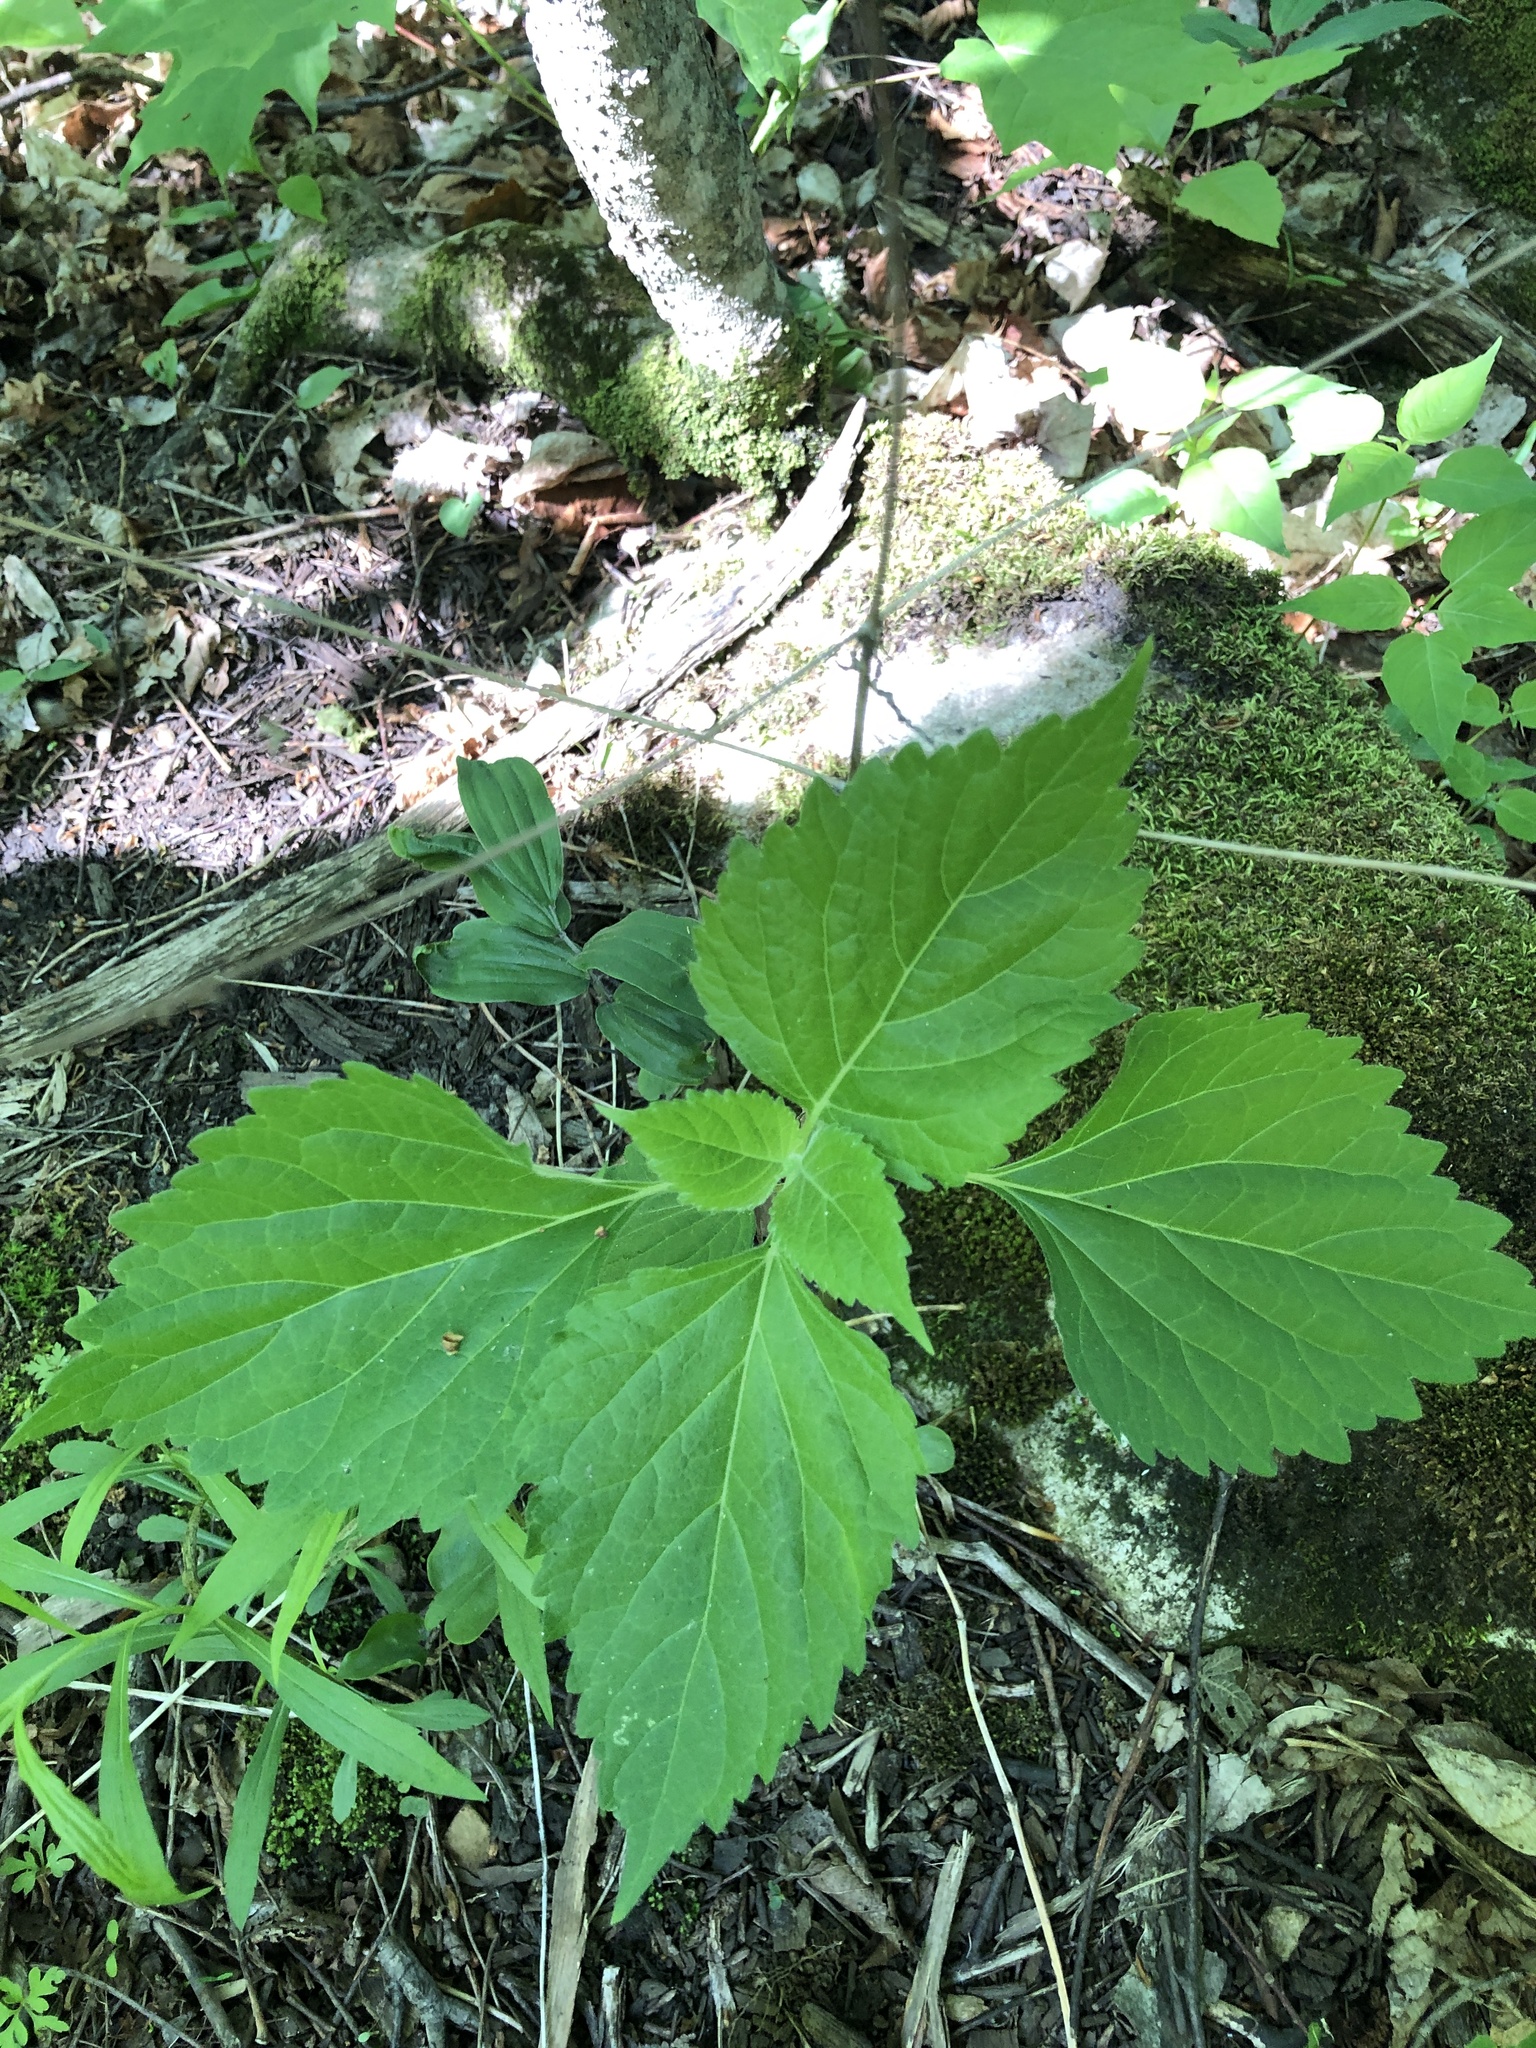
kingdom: Plantae
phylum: Tracheophyta
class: Magnoliopsida
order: Lamiales
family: Phrymaceae
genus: Phryma
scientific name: Phryma leptostachya
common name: American lopseed
